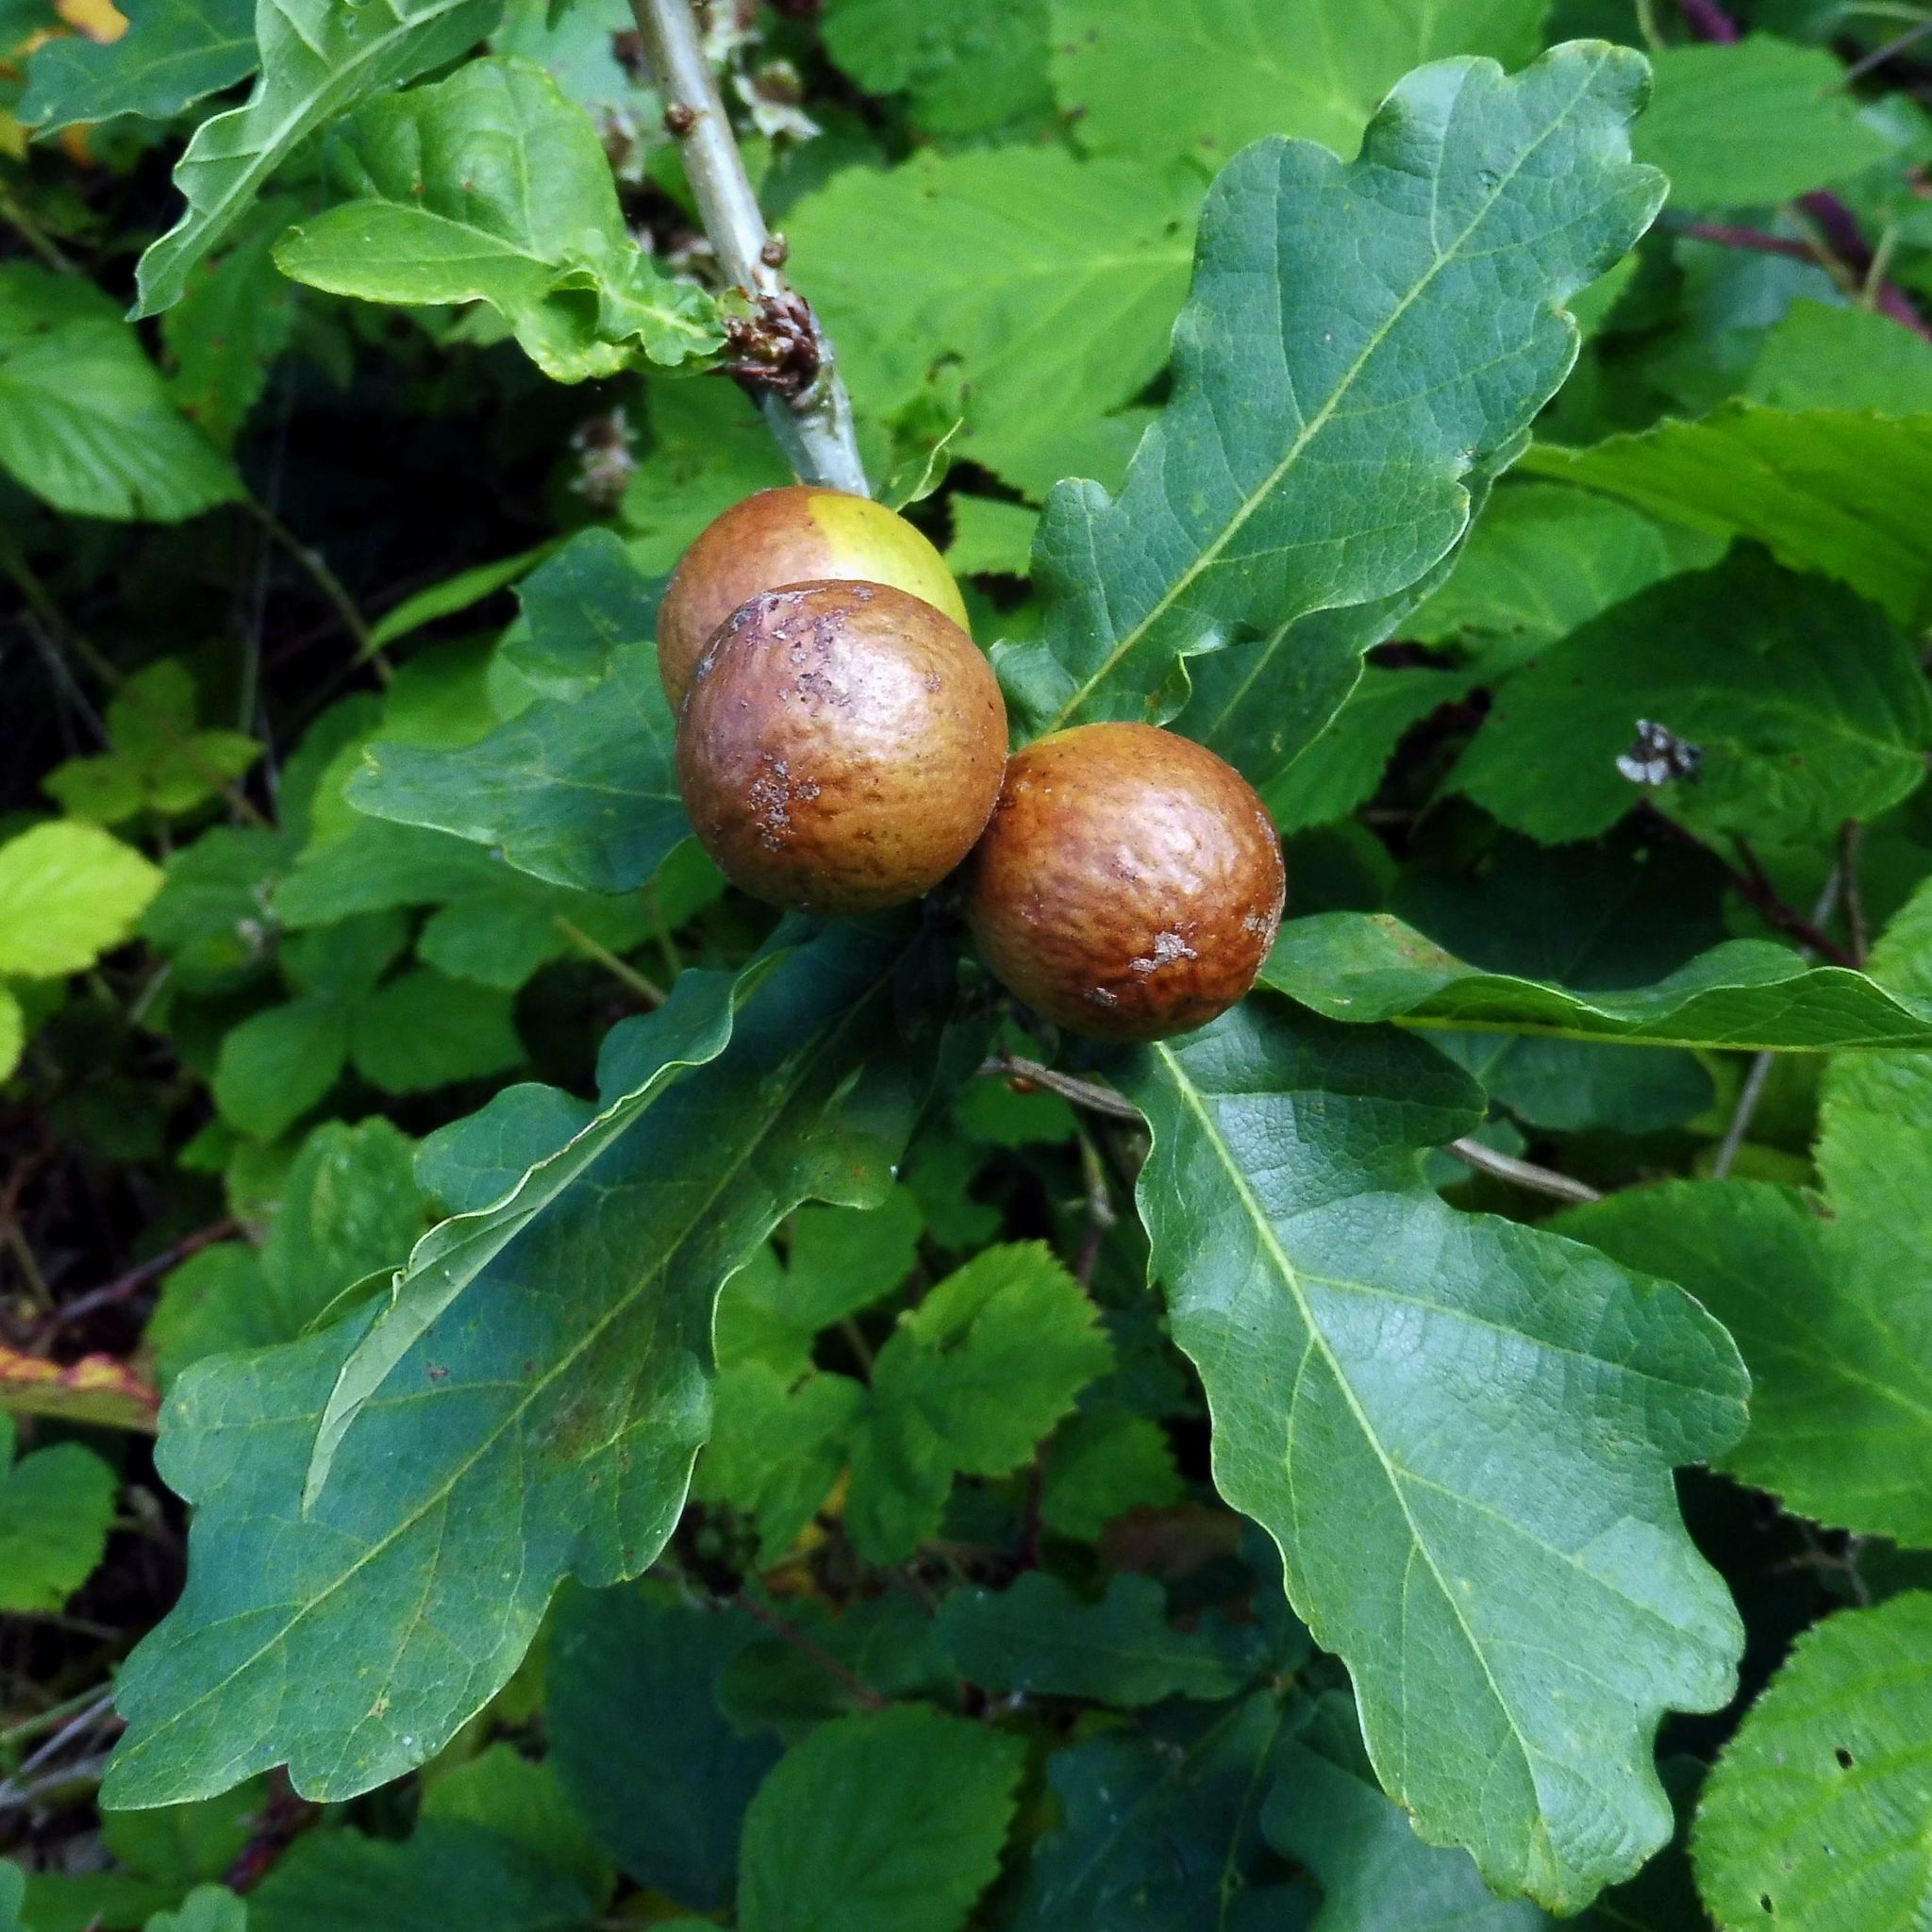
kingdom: Animalia
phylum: Arthropoda
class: Insecta
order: Hymenoptera
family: Cynipidae
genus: Andricus
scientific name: Andricus kollari
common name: Marble gall
